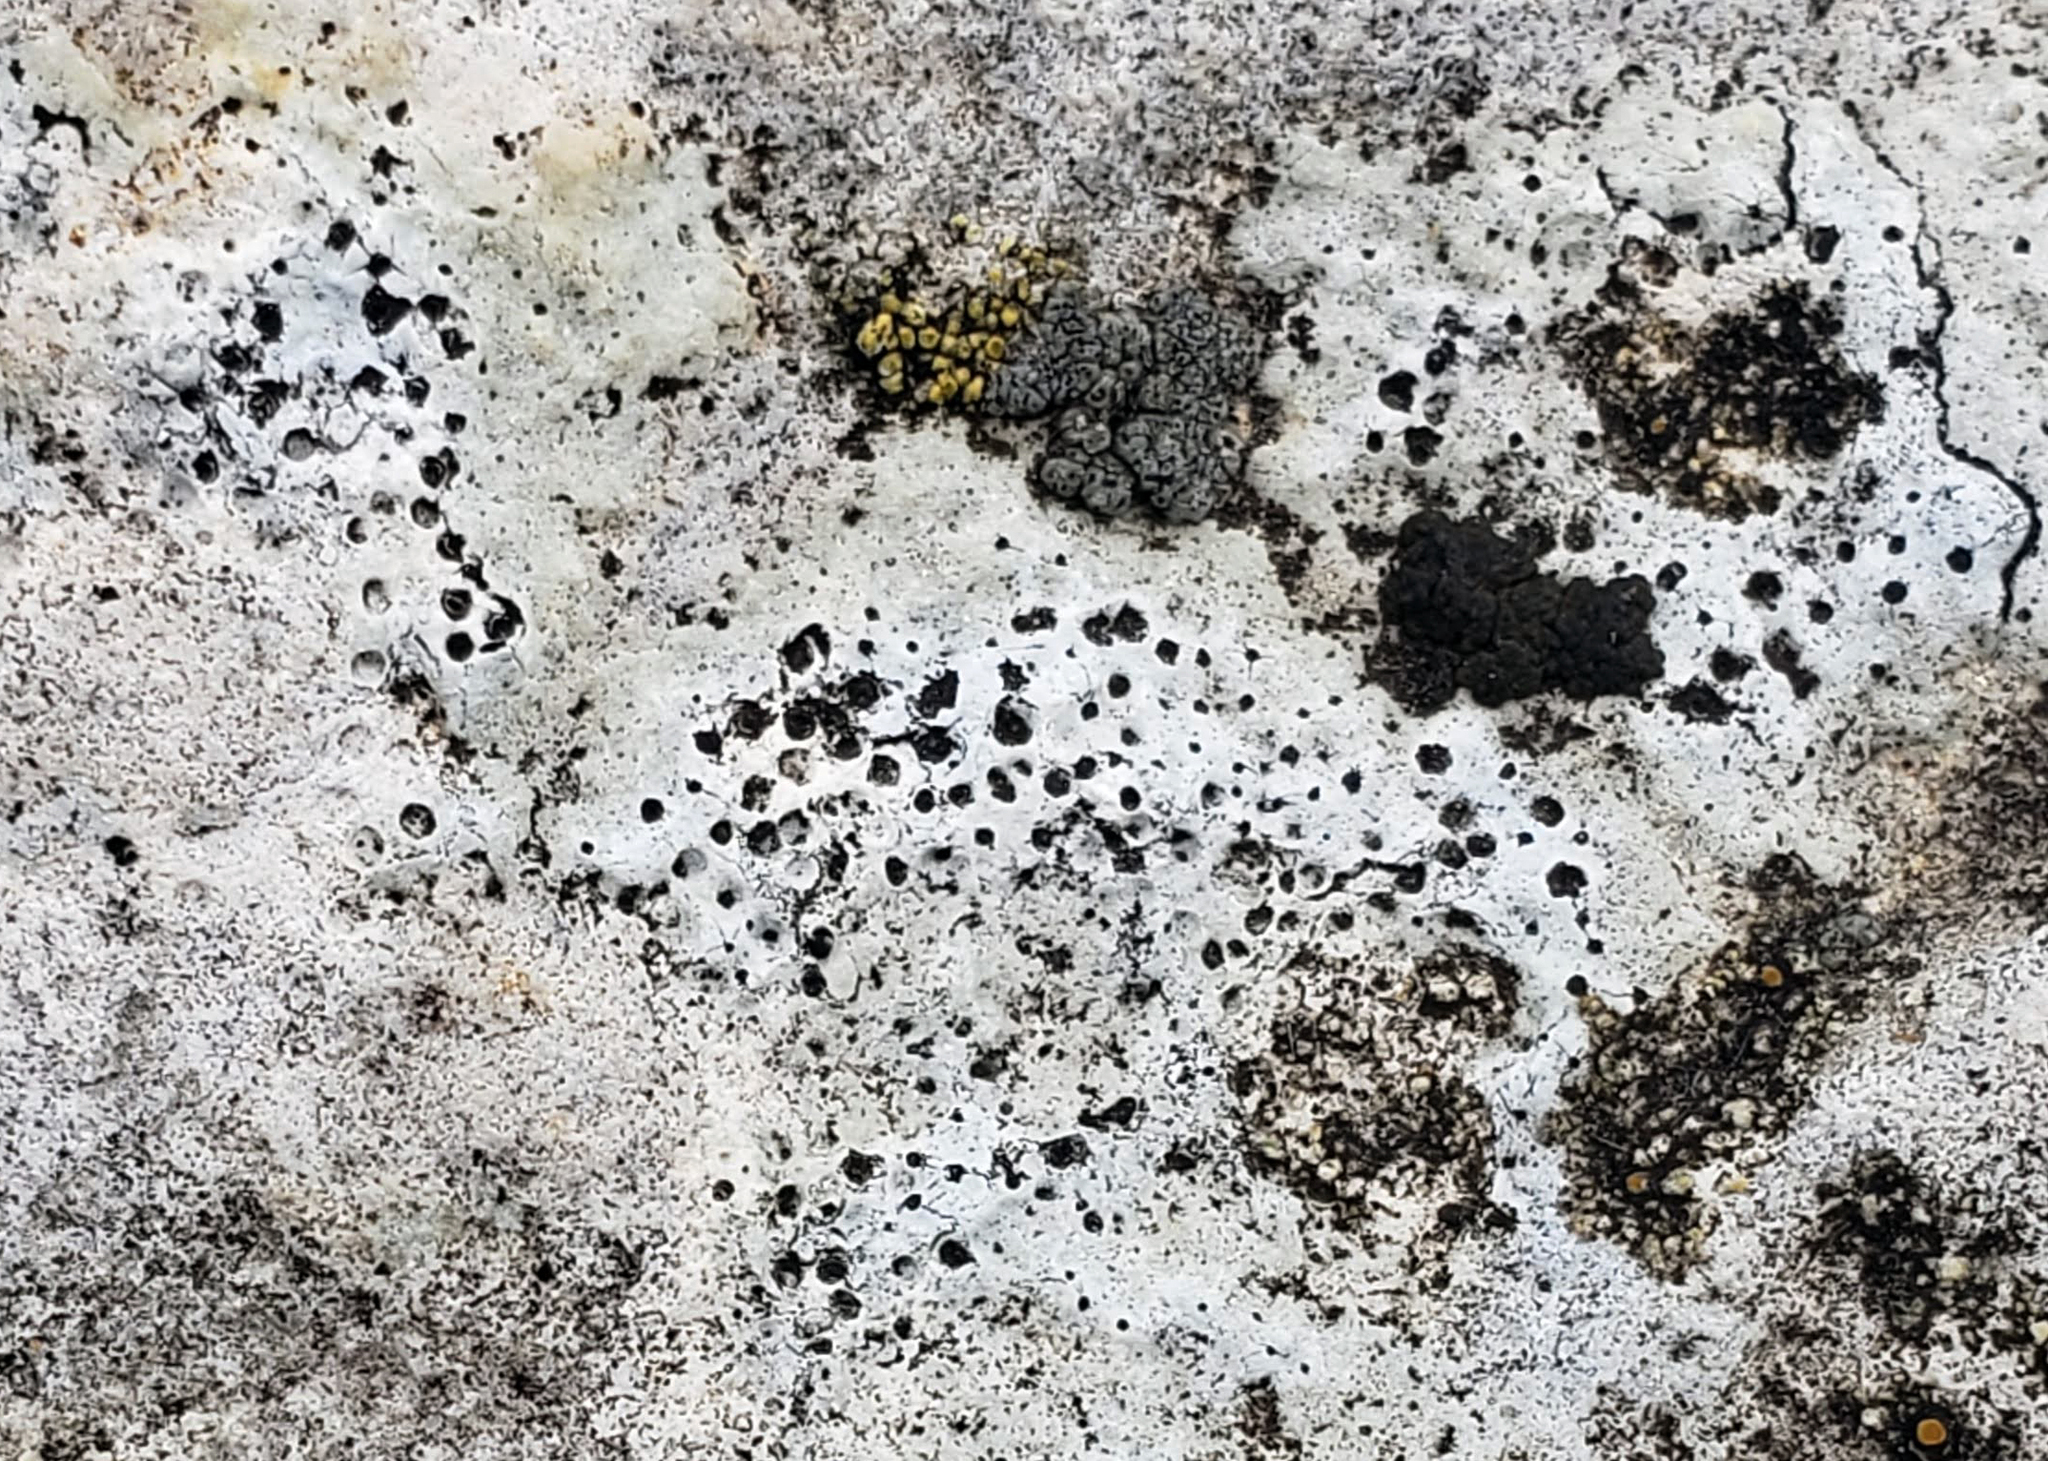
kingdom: Fungi
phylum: Ascomycota
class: Eurotiomycetes
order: Verrucariales
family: Verrucariaceae
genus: Bagliettoa
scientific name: Bagliettoa calciseda
